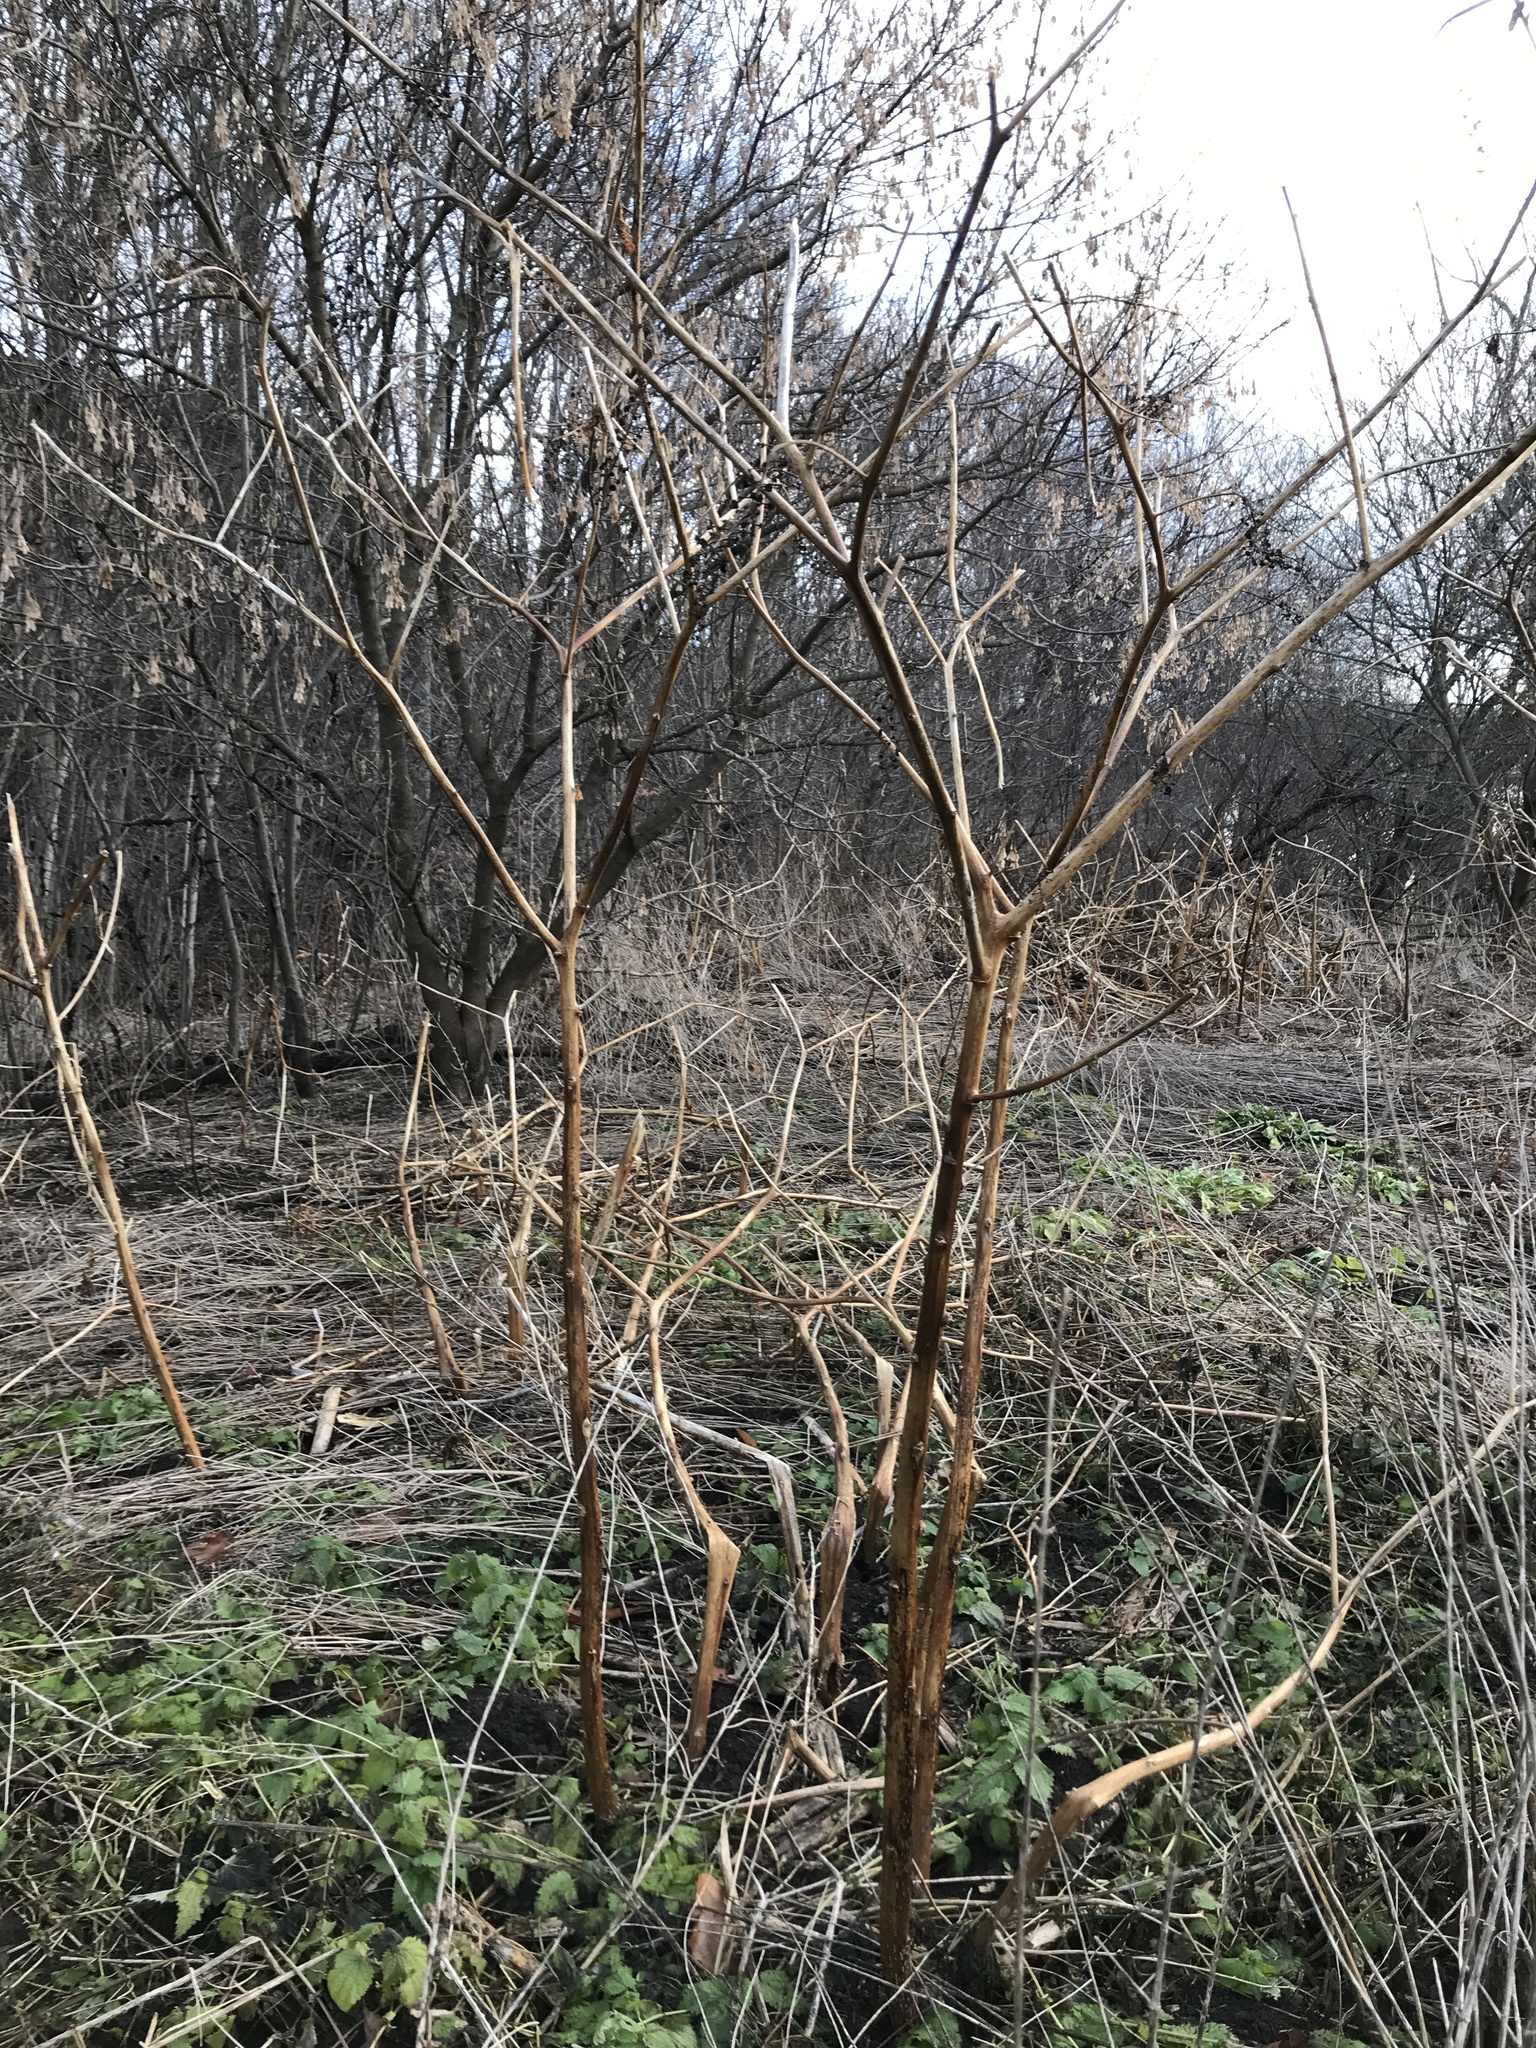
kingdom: Plantae
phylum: Tracheophyta
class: Magnoliopsida
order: Caryophyllales
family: Phytolaccaceae
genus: Phytolacca
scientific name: Phytolacca americana
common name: American pokeweed
